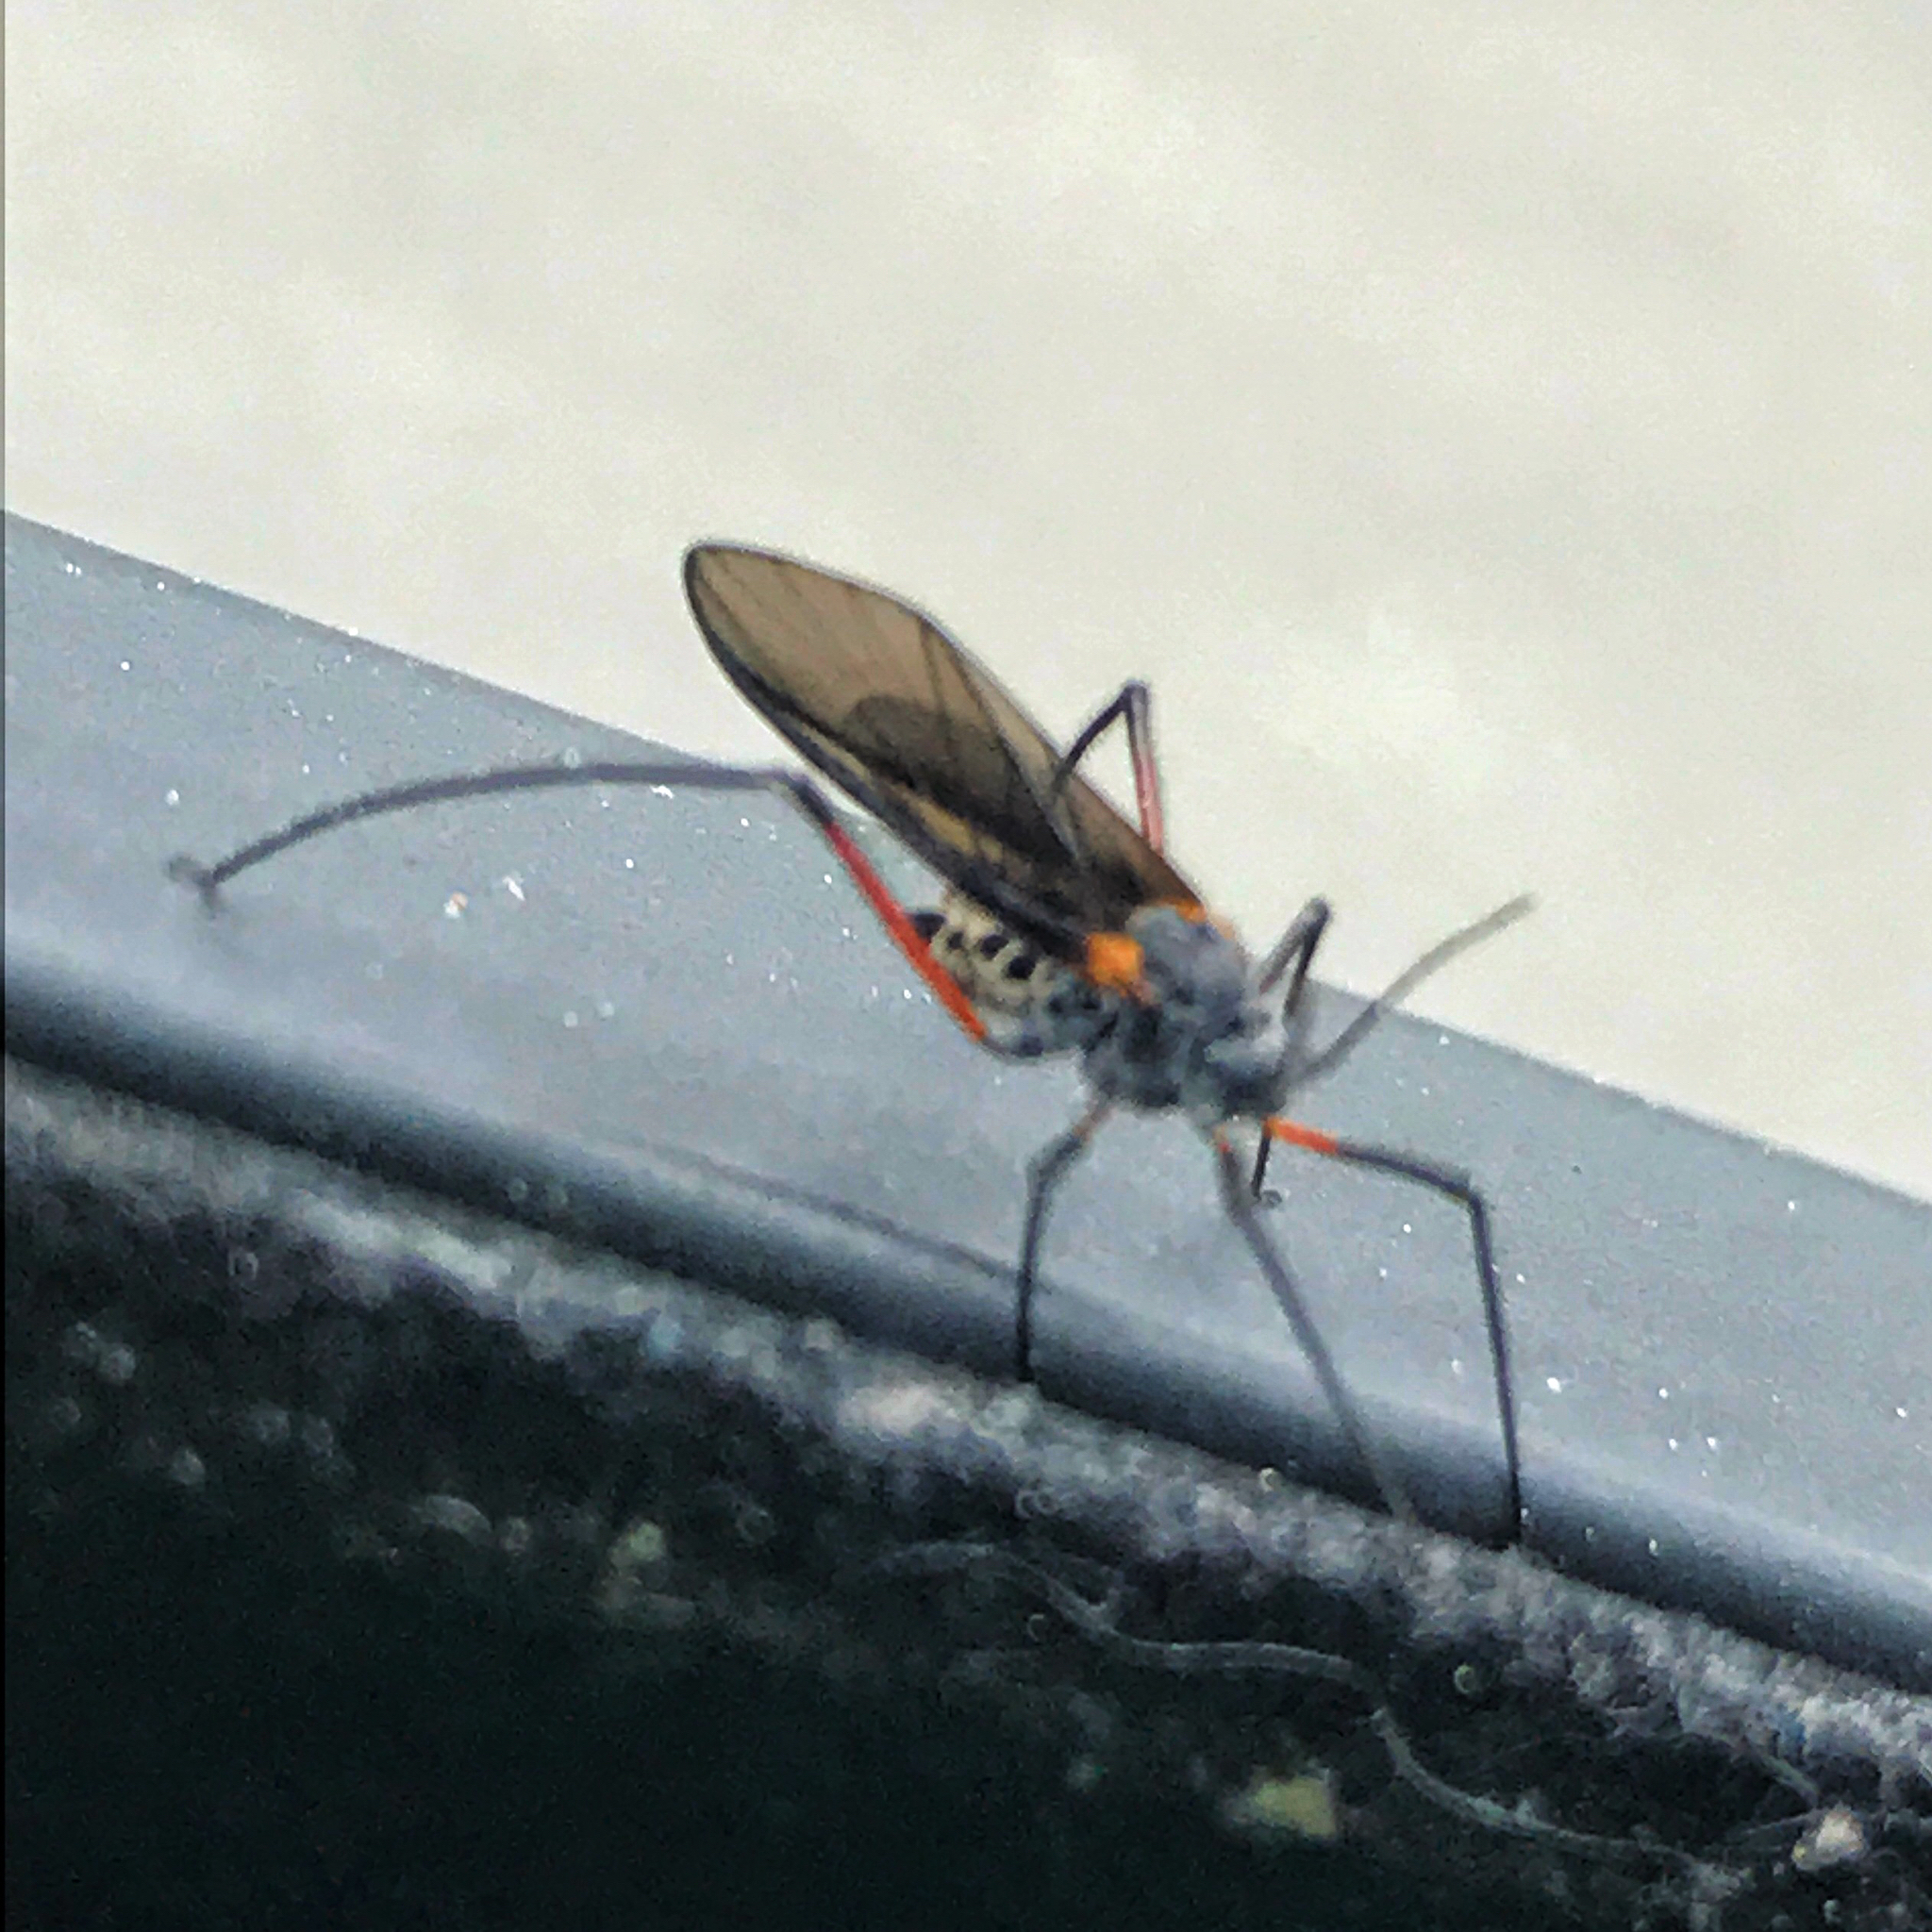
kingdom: Animalia
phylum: Arthropoda
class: Insecta
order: Hemiptera
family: Aphididae
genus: Longistigma
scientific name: Longistigma caryae
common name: Giant bark aphid
